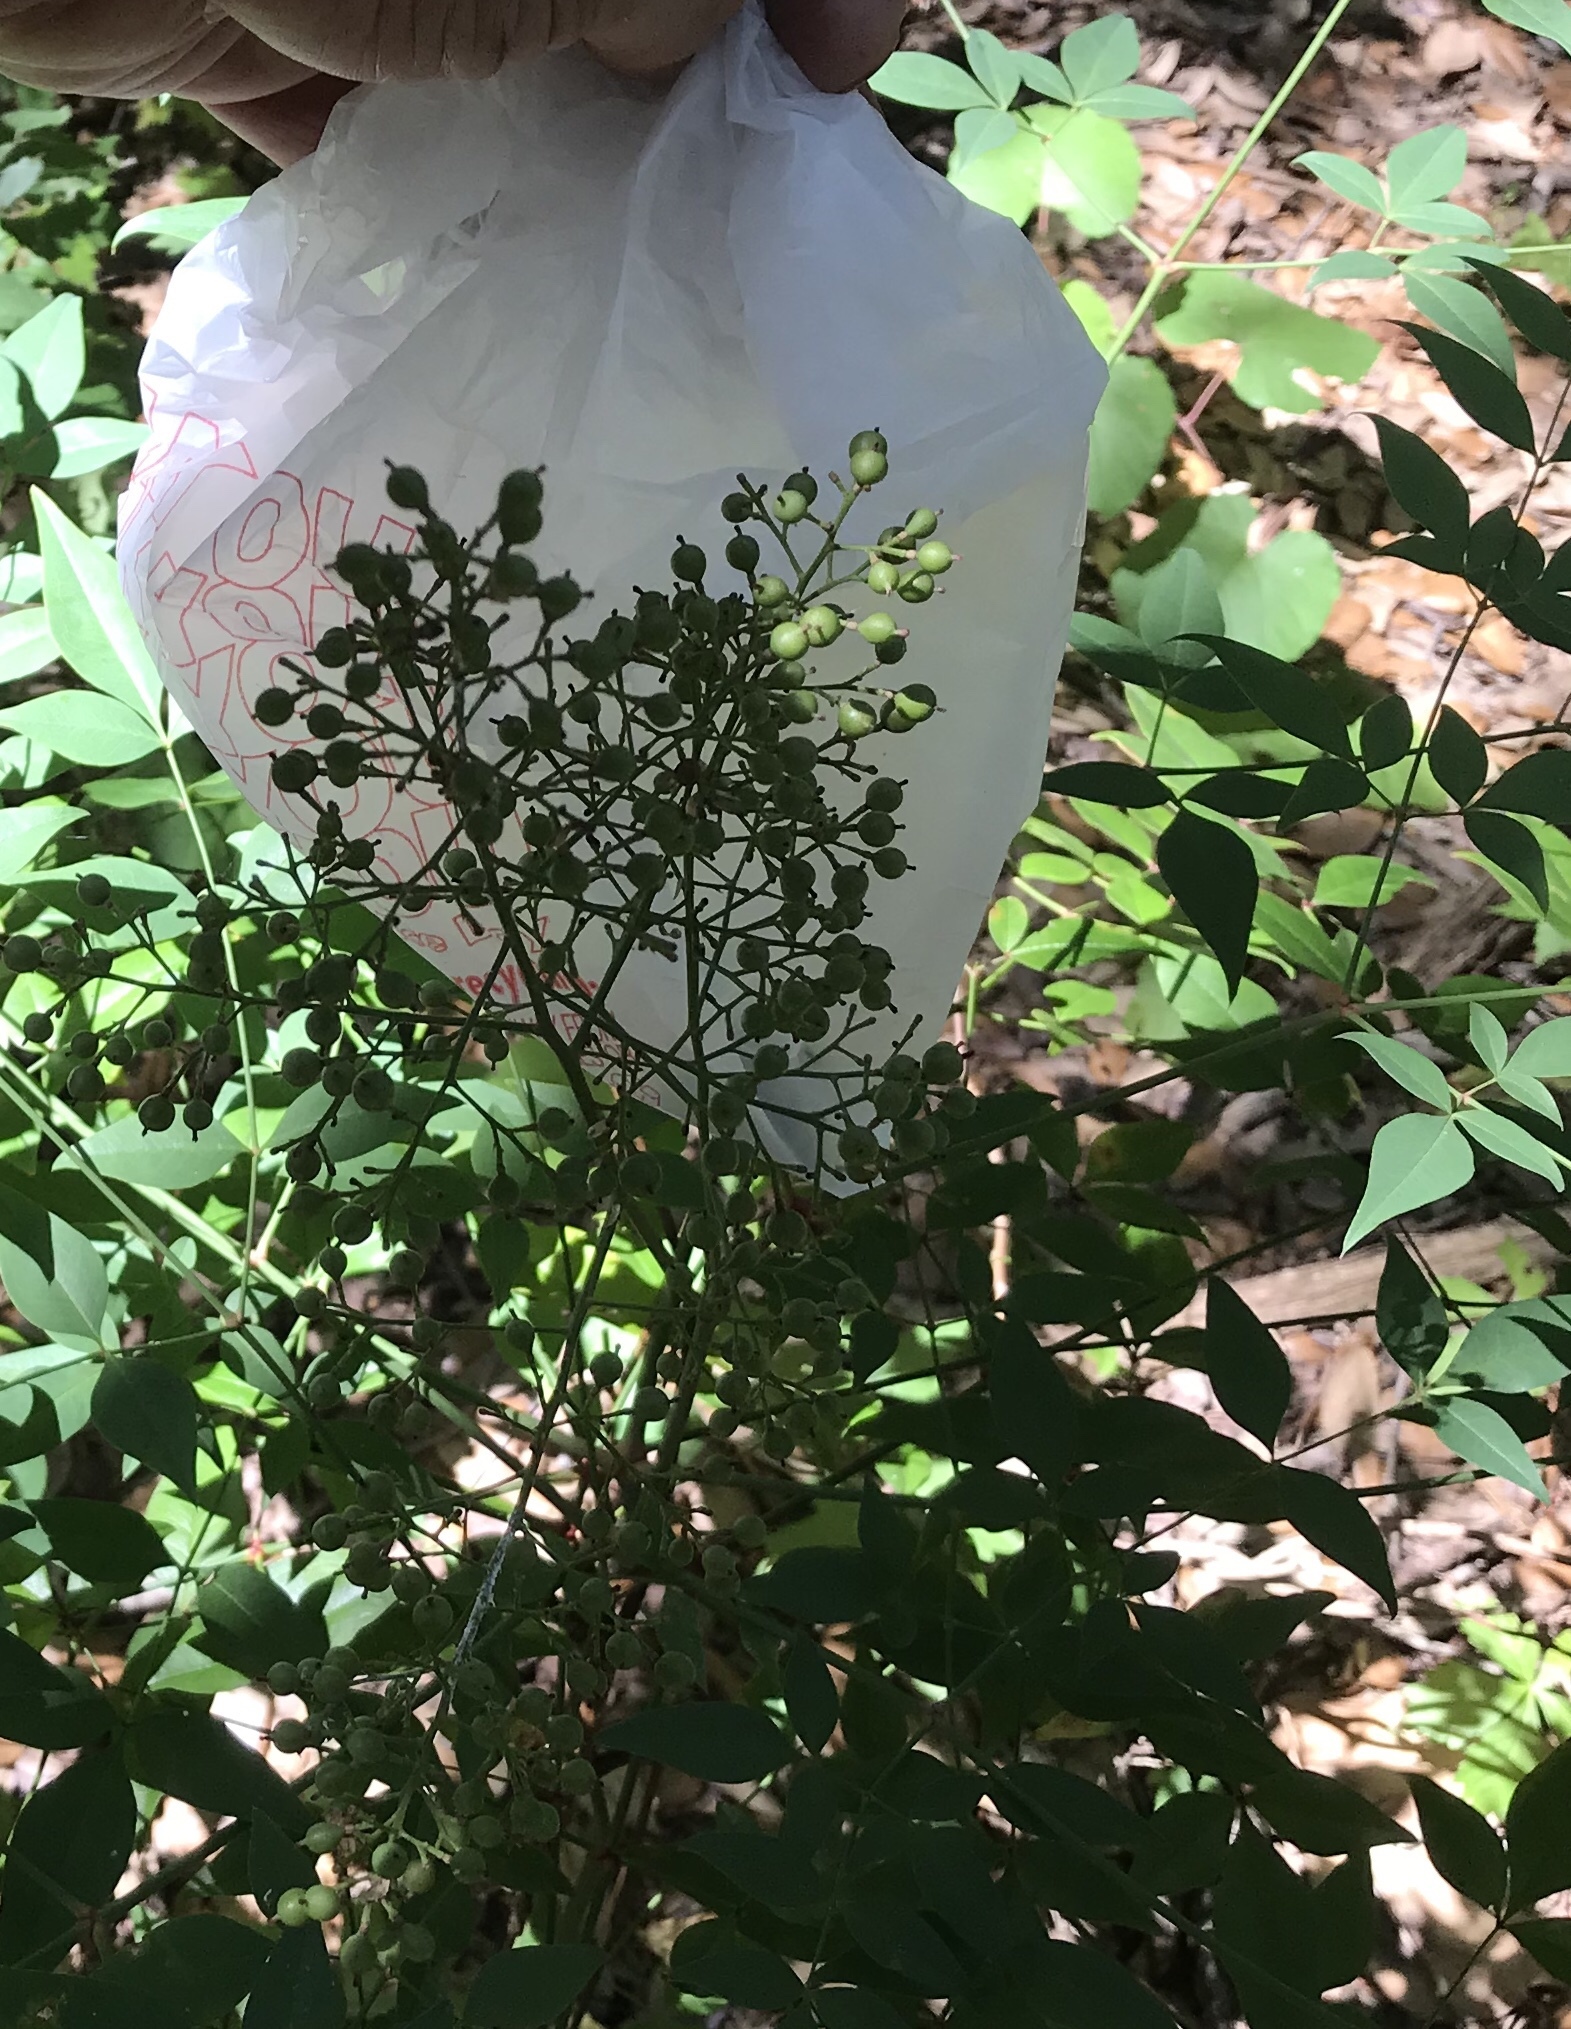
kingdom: Plantae
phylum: Tracheophyta
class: Magnoliopsida
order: Ranunculales
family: Berberidaceae
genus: Nandina
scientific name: Nandina domestica
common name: Sacred bamboo
